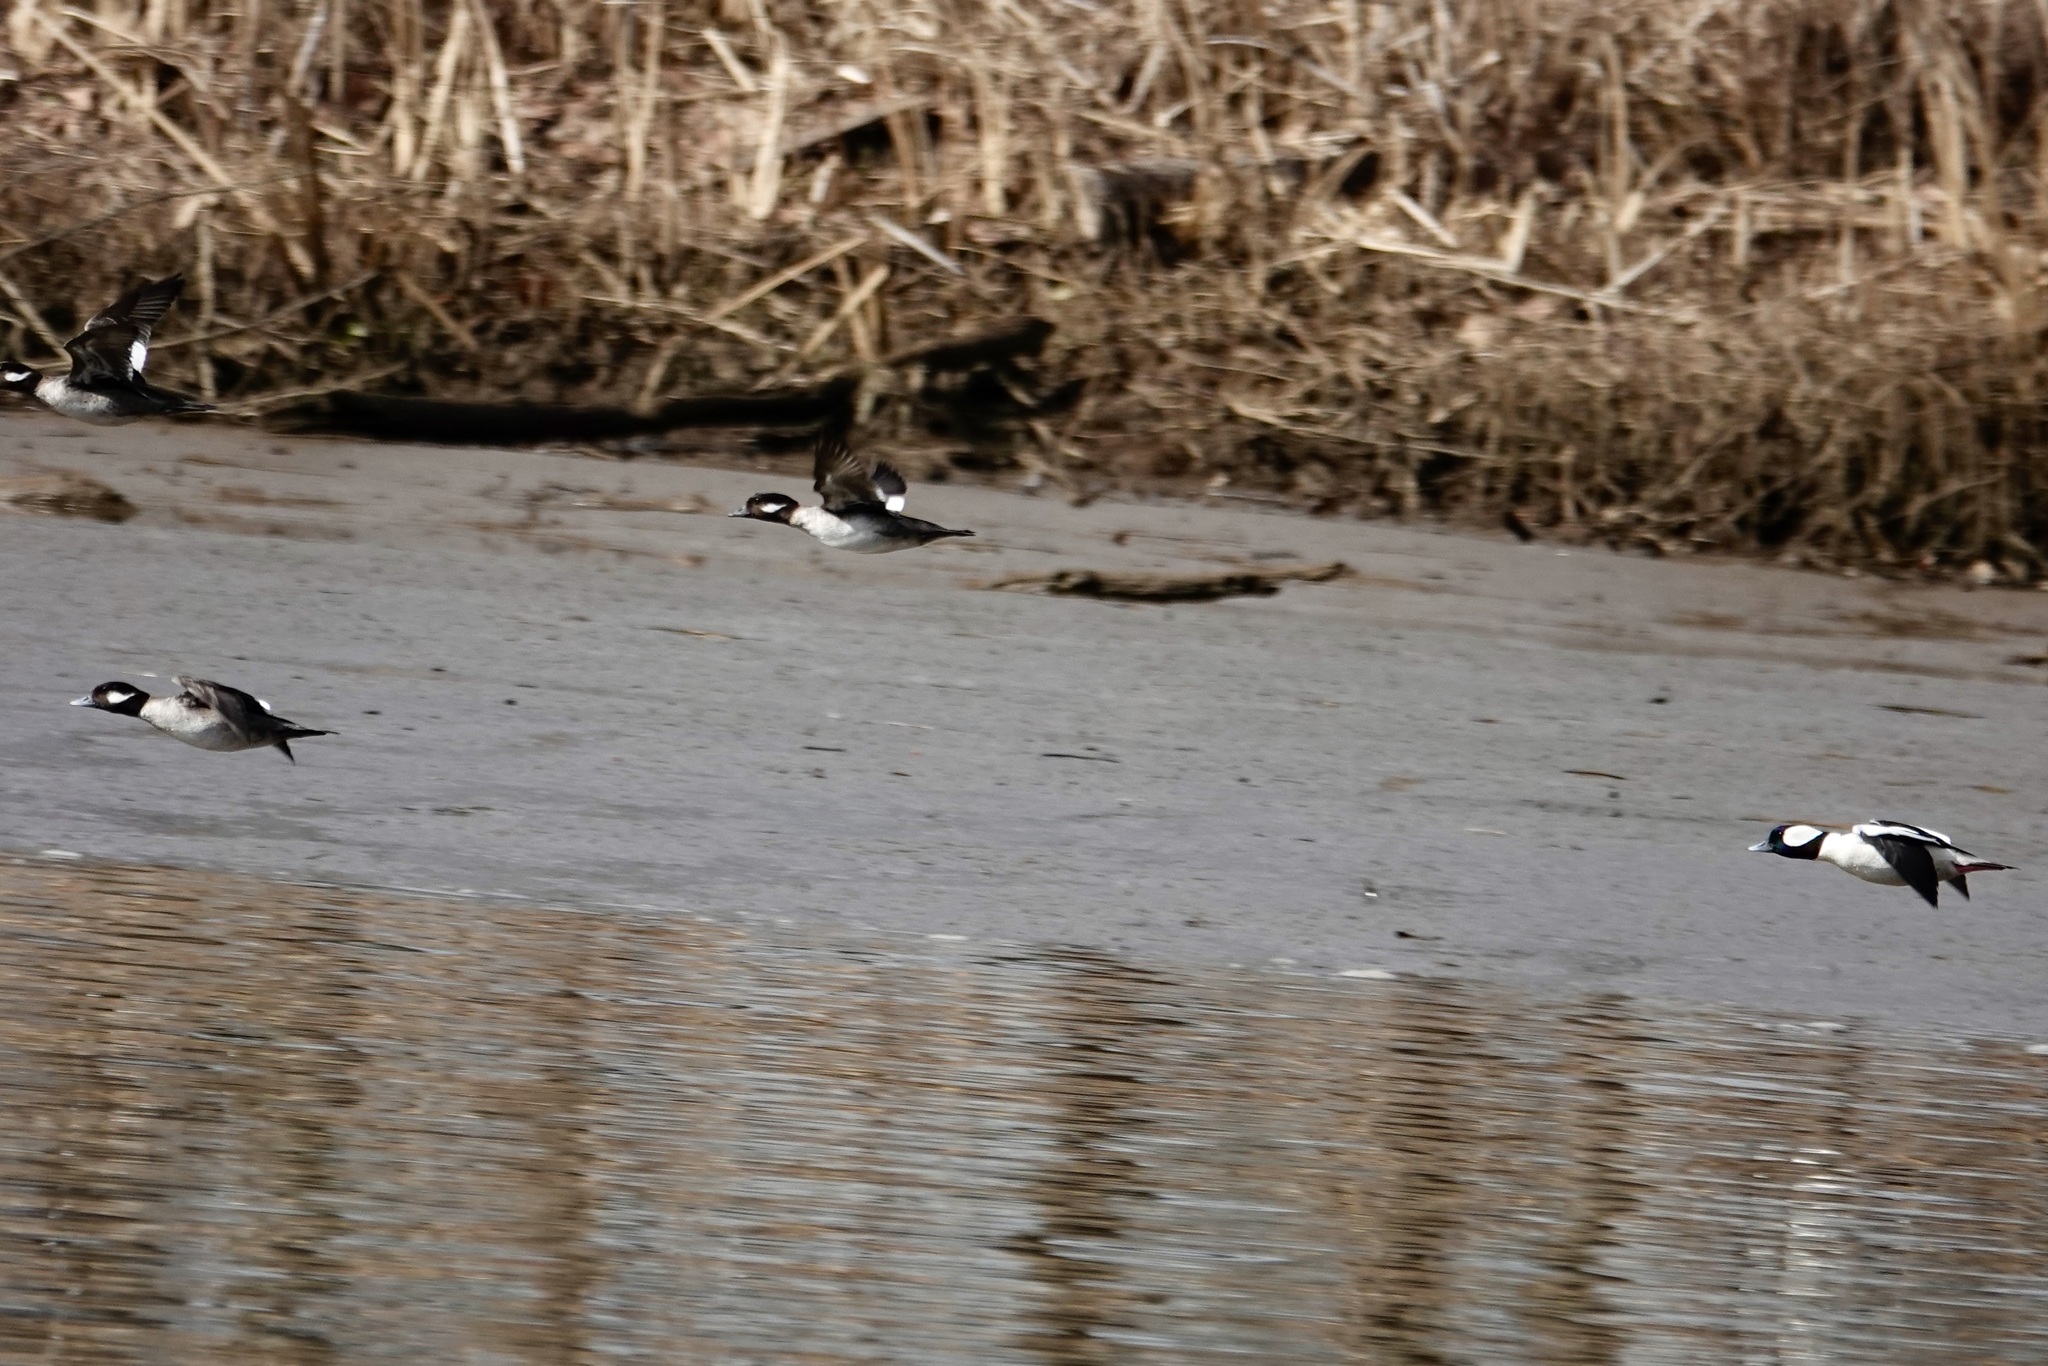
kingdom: Animalia
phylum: Chordata
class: Aves
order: Anseriformes
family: Anatidae
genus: Bucephala
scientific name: Bucephala albeola
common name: Bufflehead
